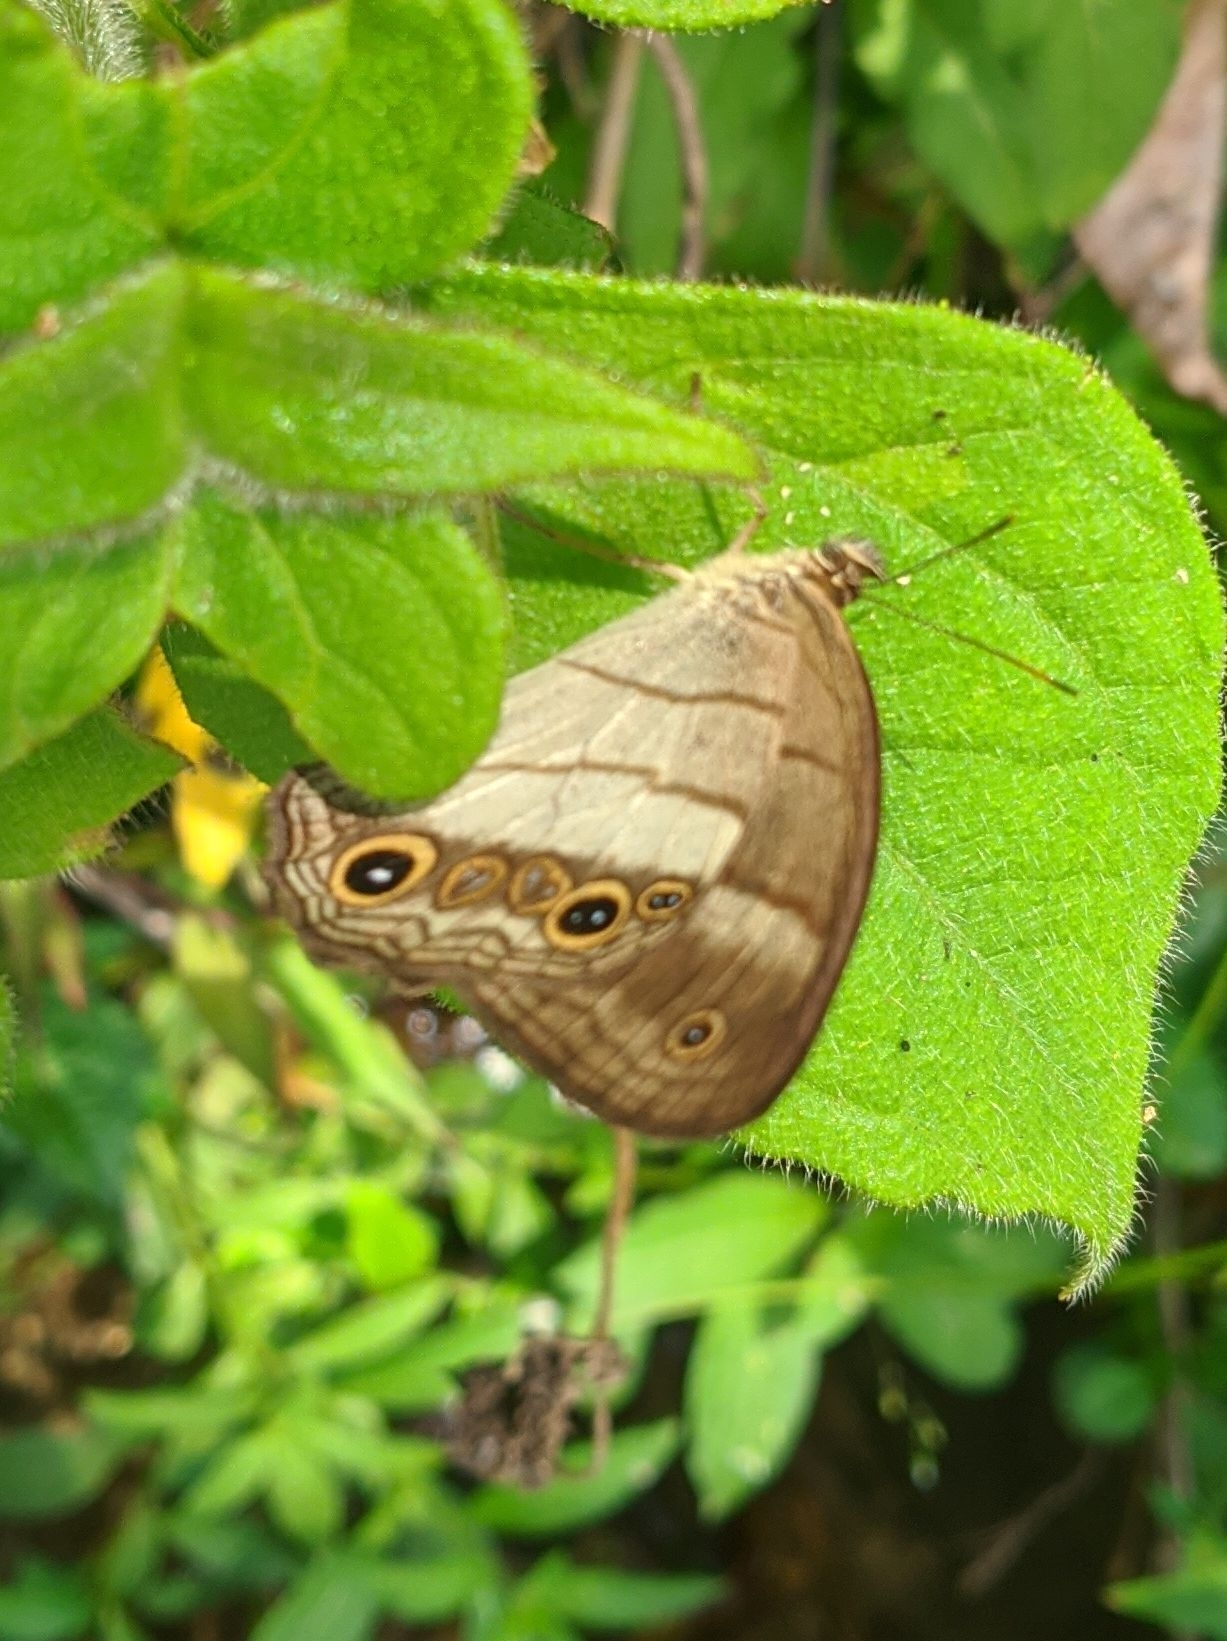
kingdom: Animalia
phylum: Arthropoda
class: Insecta
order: Lepidoptera
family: Nymphalidae
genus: Euptychoides
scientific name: Euptychoides saturnus
